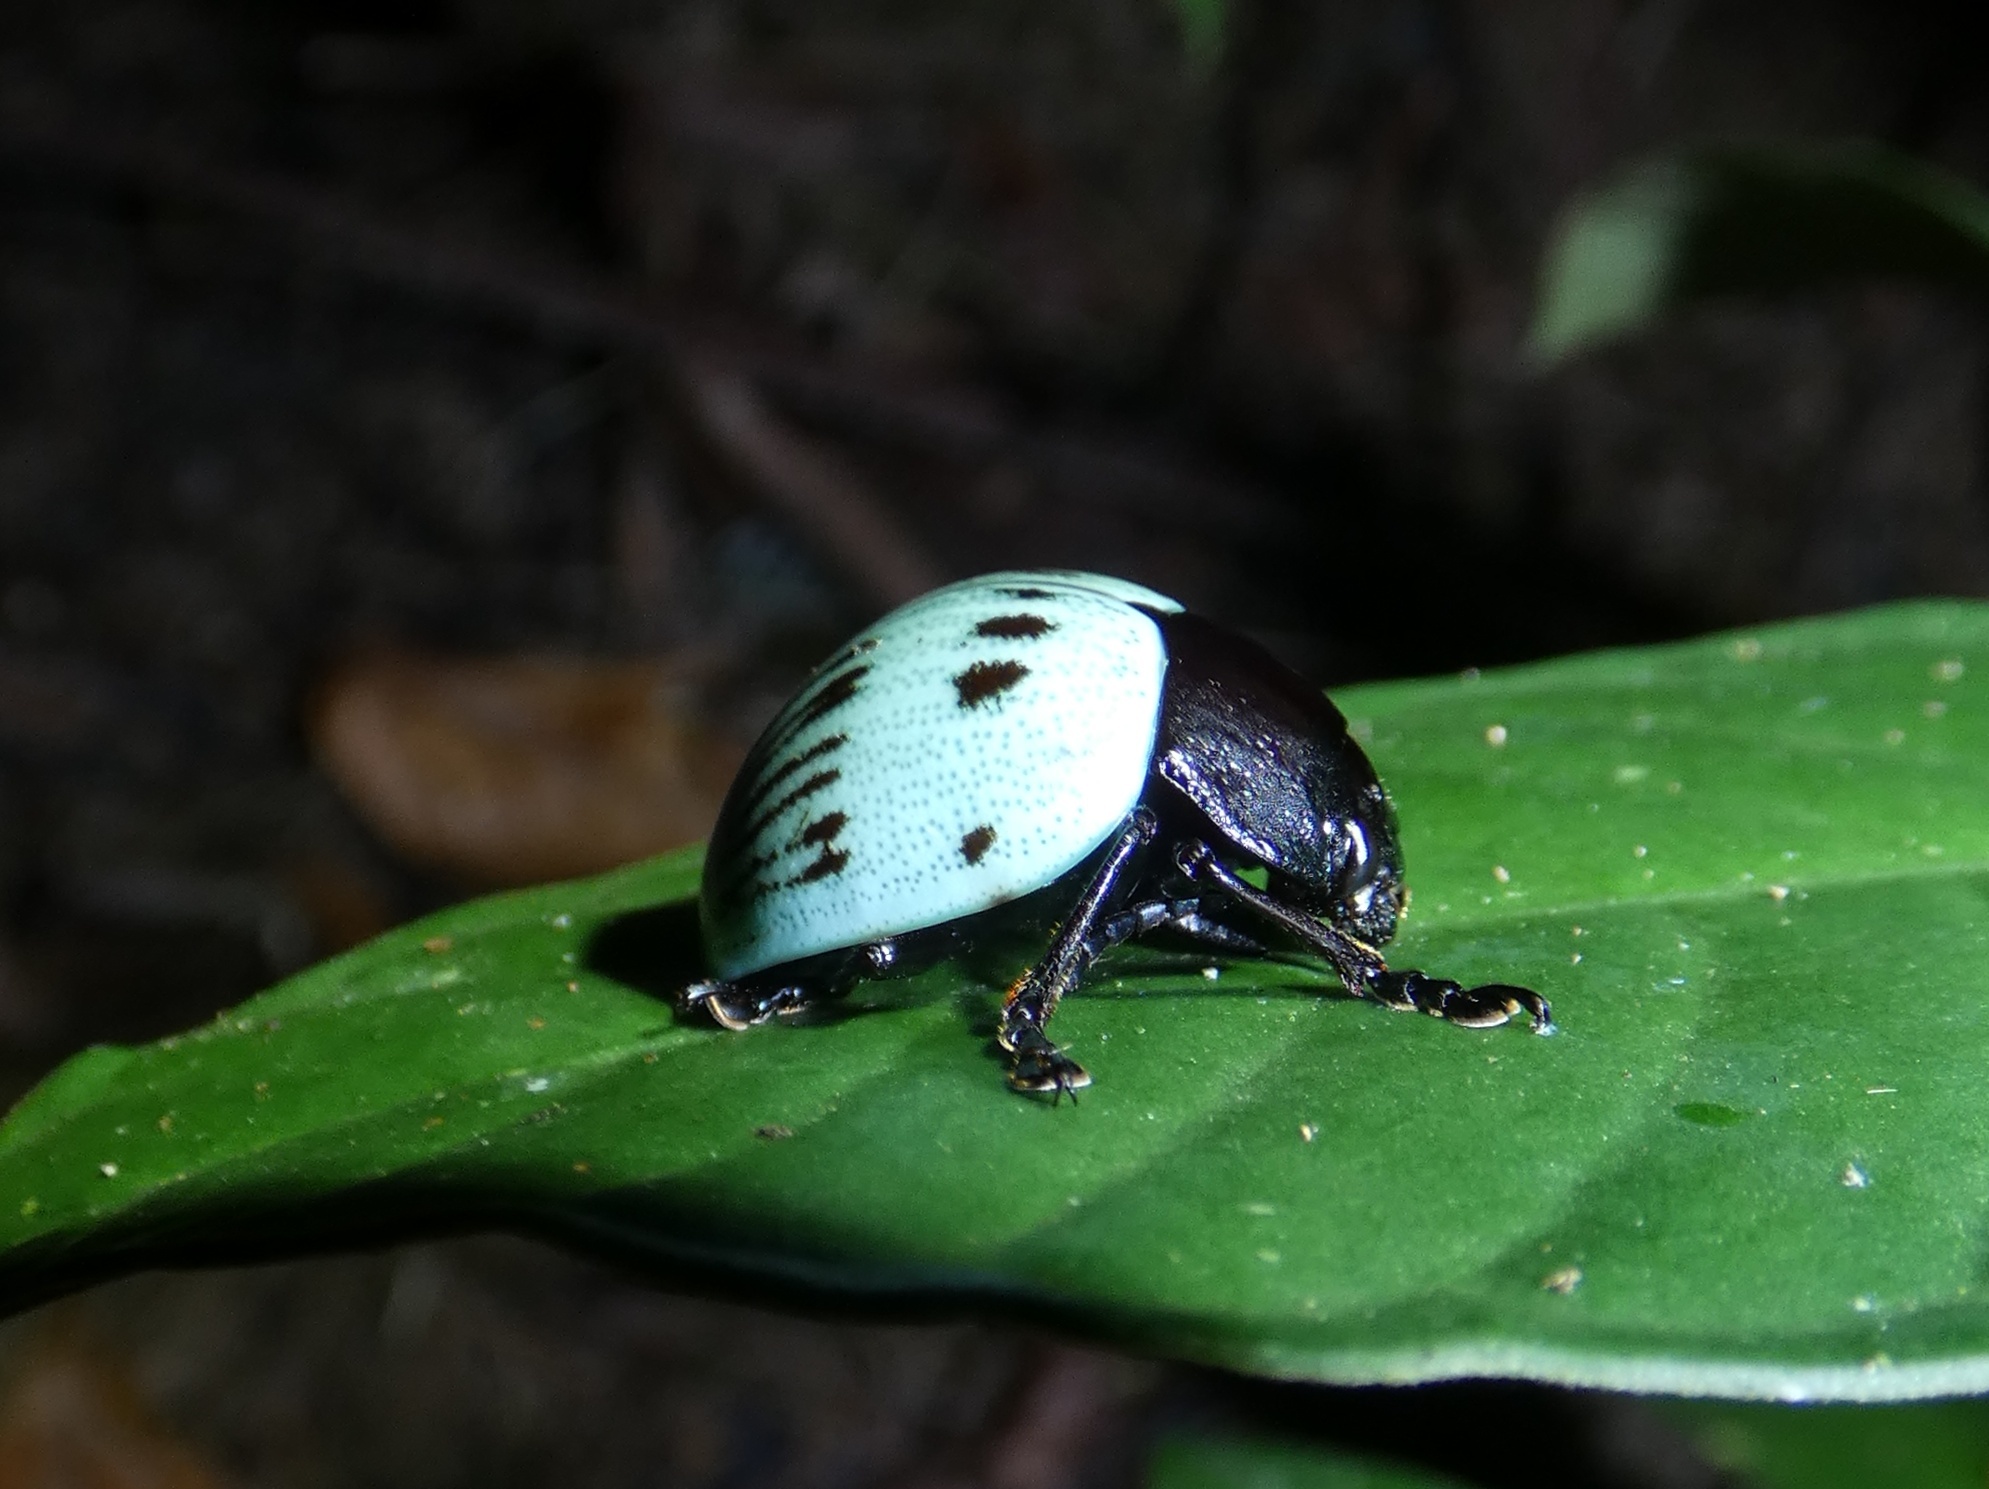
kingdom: Animalia
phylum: Arthropoda
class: Insecta
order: Coleoptera
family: Chrysomelidae
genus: Platyphora
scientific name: Platyphora
